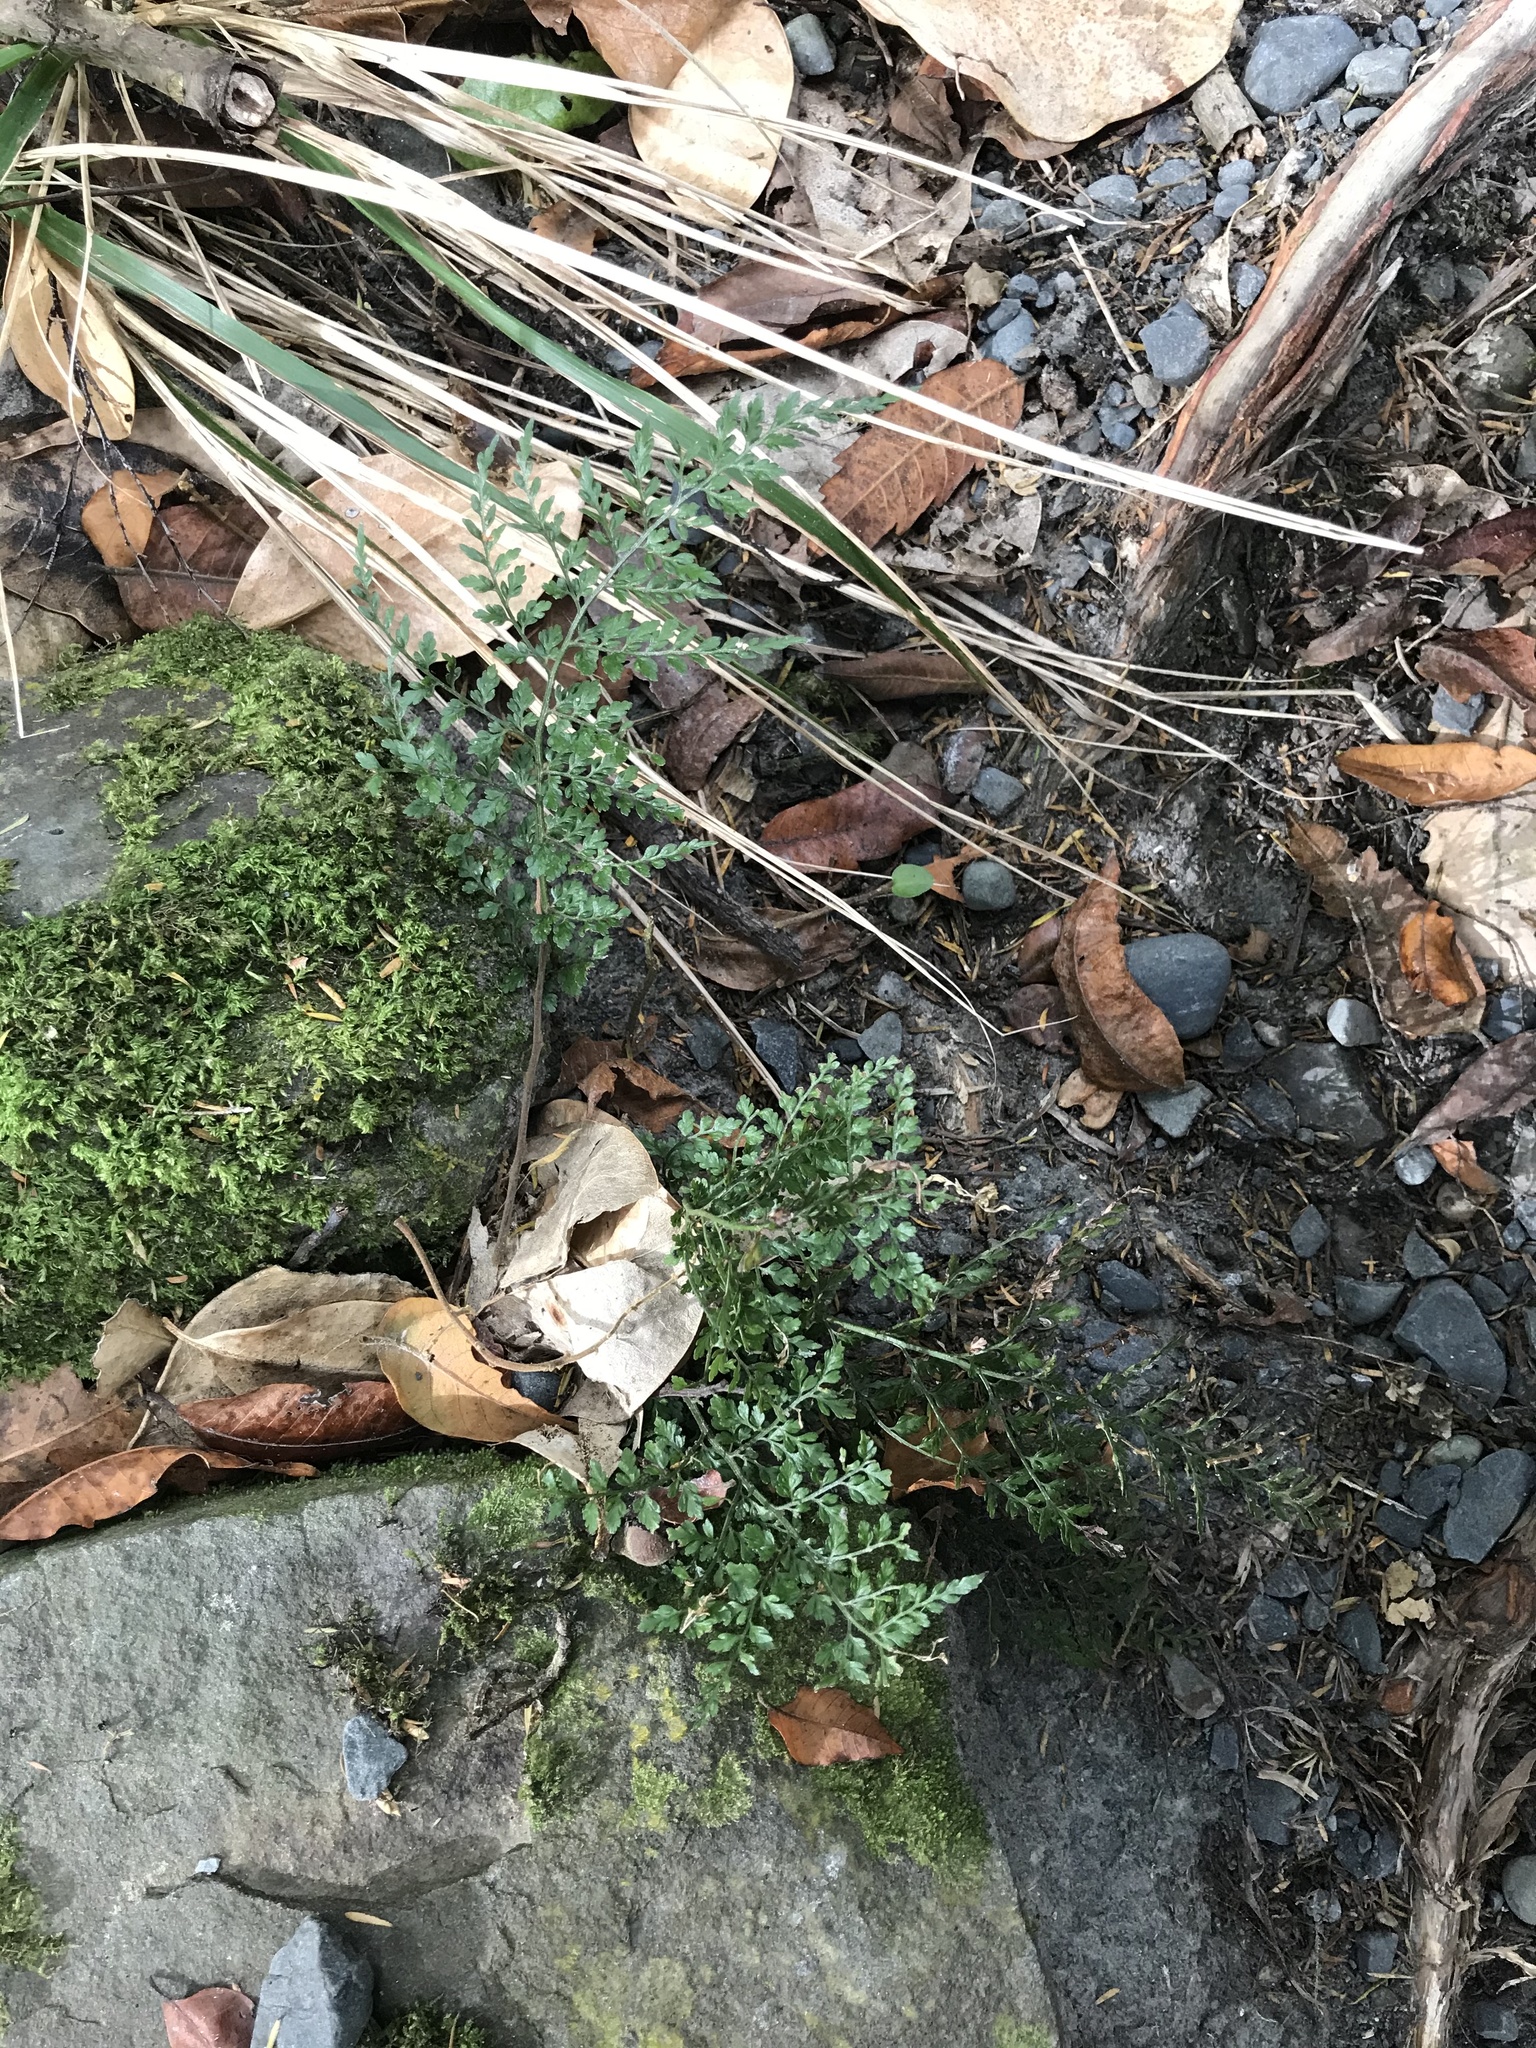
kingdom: Plantae
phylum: Tracheophyta
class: Polypodiopsida
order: Polypodiales
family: Aspleniaceae
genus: Asplenium
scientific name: Asplenium hookerianum
